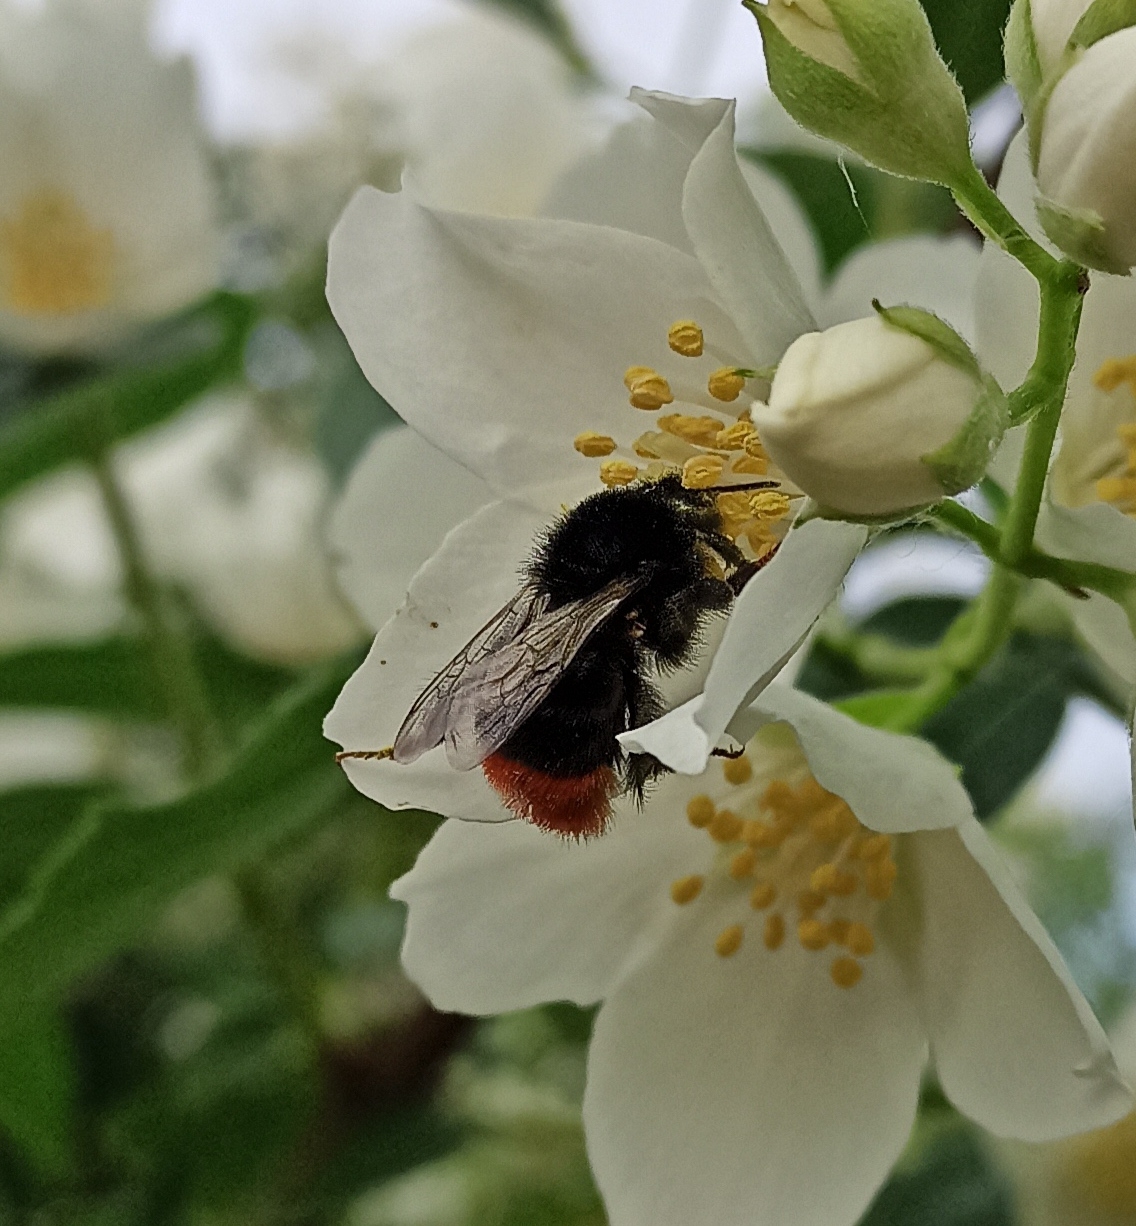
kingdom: Animalia
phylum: Arthropoda
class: Insecta
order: Hymenoptera
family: Apidae
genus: Bombus
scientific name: Bombus lapidarius
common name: Large red-tailed humble-bee
